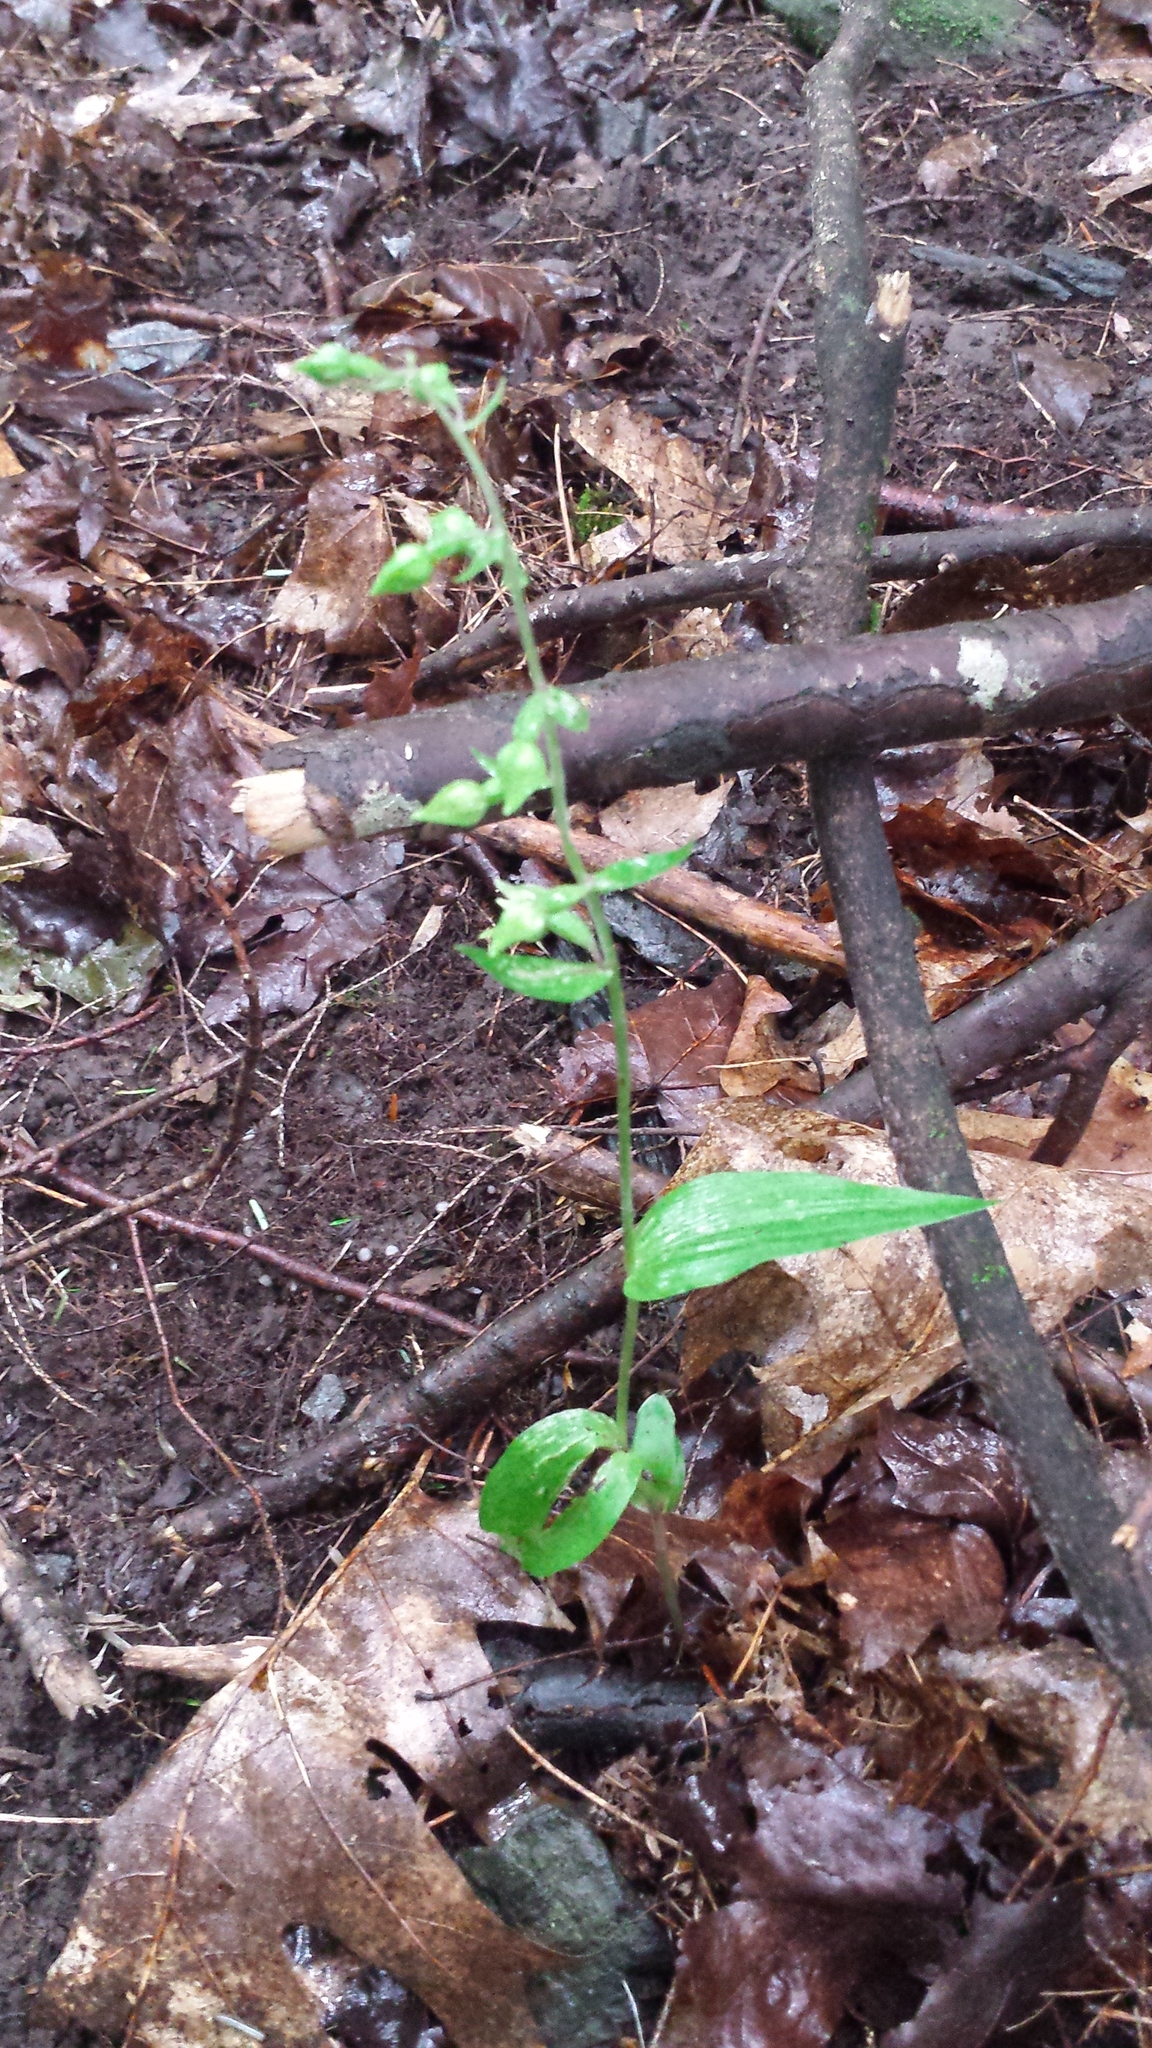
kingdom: Plantae
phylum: Tracheophyta
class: Liliopsida
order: Asparagales
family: Orchidaceae
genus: Epipactis
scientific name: Epipactis helleborine
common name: Broad-leaved helleborine
